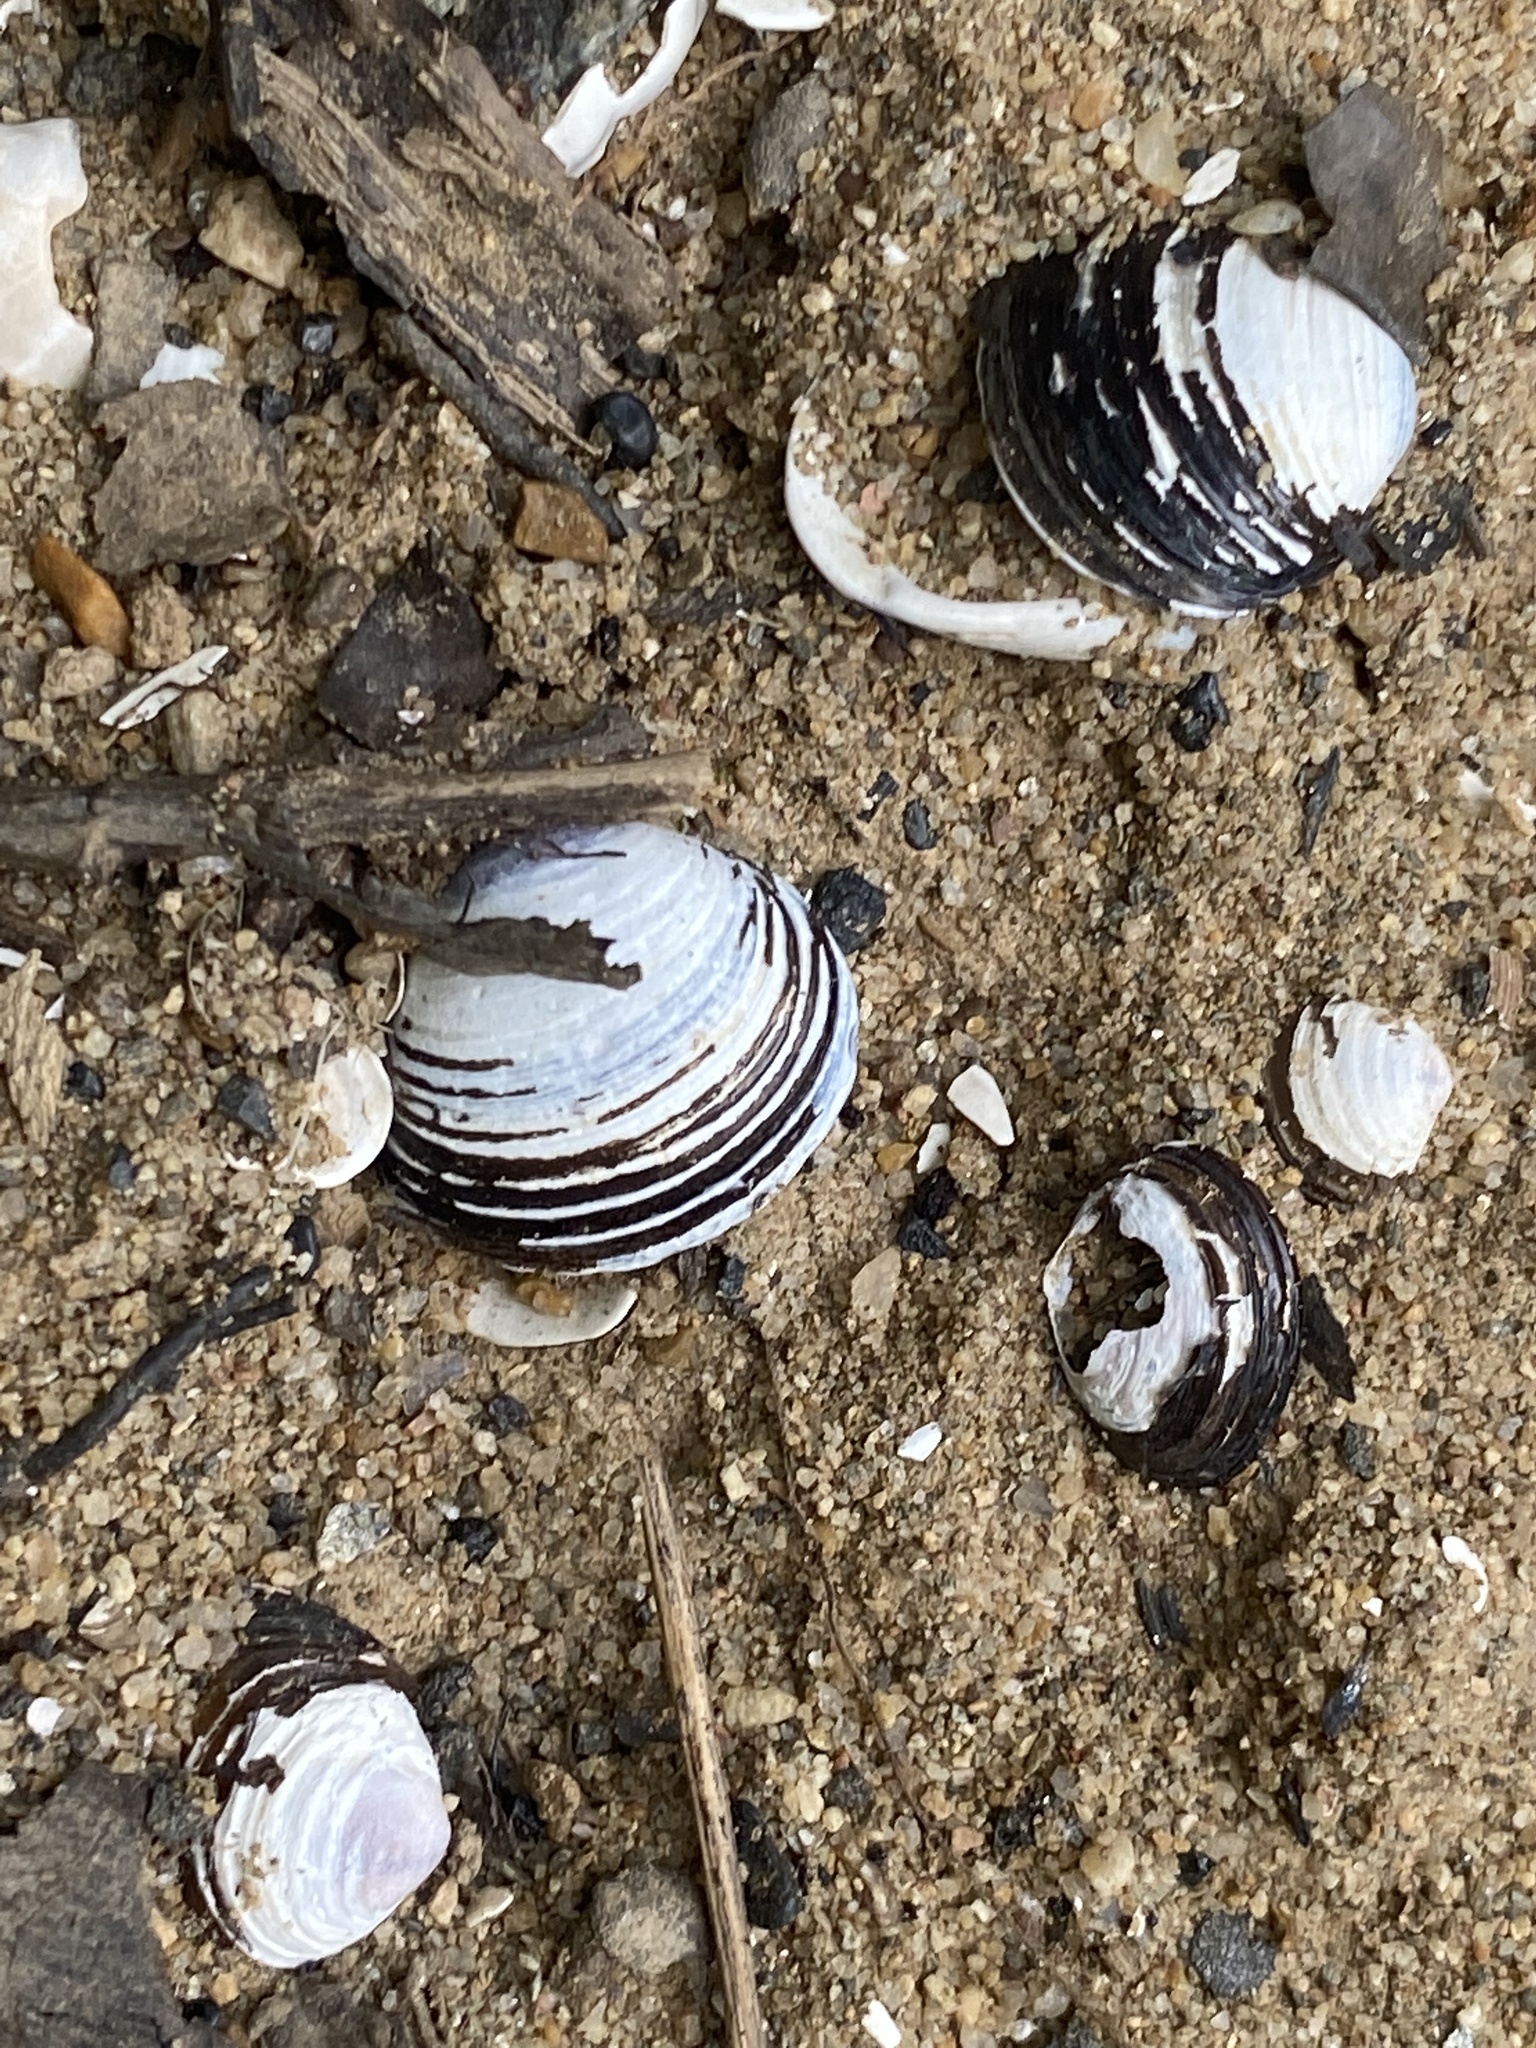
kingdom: Animalia
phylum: Mollusca
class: Bivalvia
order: Venerida
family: Cyrenidae
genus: Corbicula
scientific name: Corbicula fluminea
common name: Asian clam
